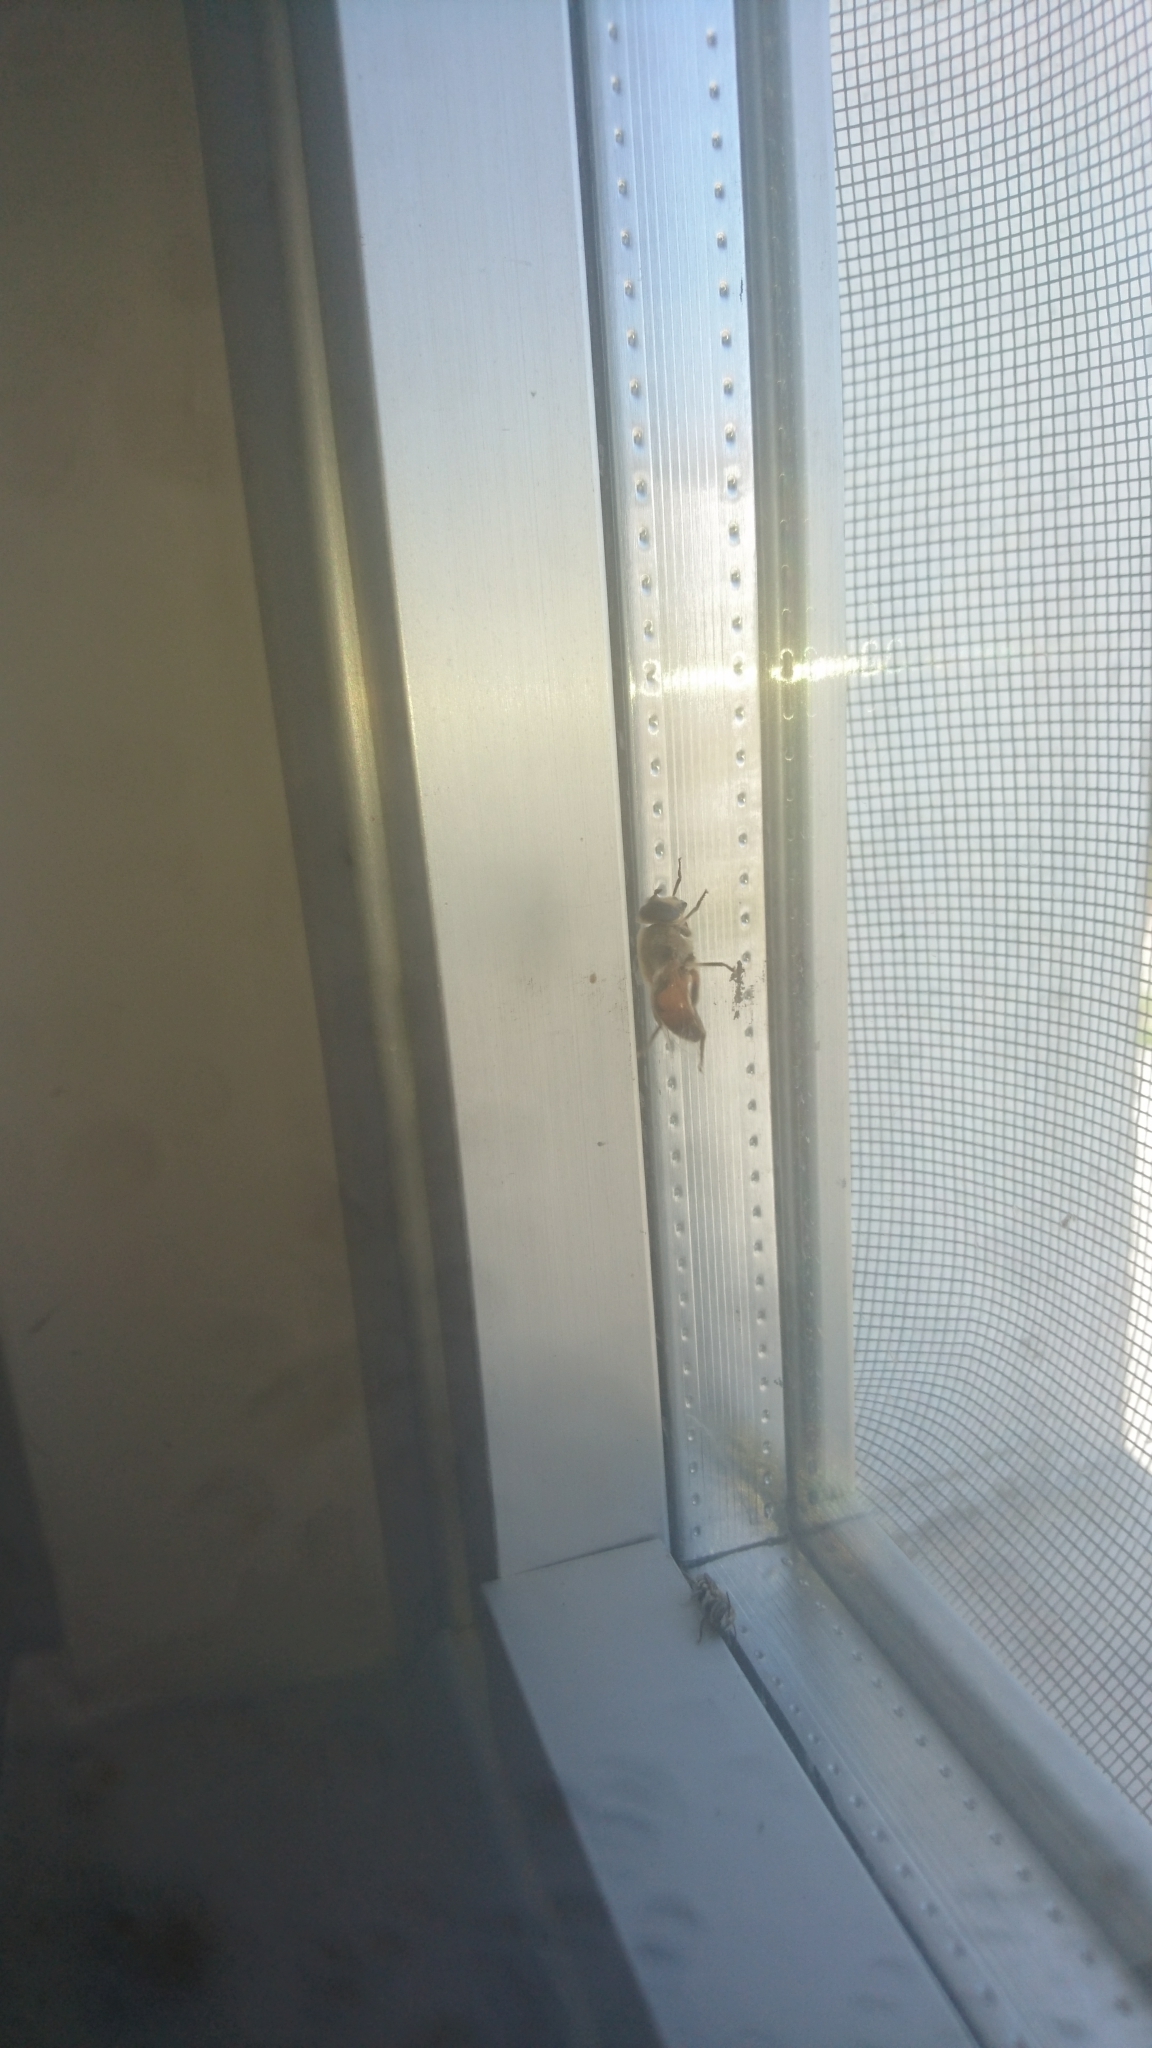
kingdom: Animalia
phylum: Arthropoda
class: Insecta
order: Diptera
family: Syrphidae
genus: Eristalis
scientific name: Eristalis tenax
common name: Drone fly
